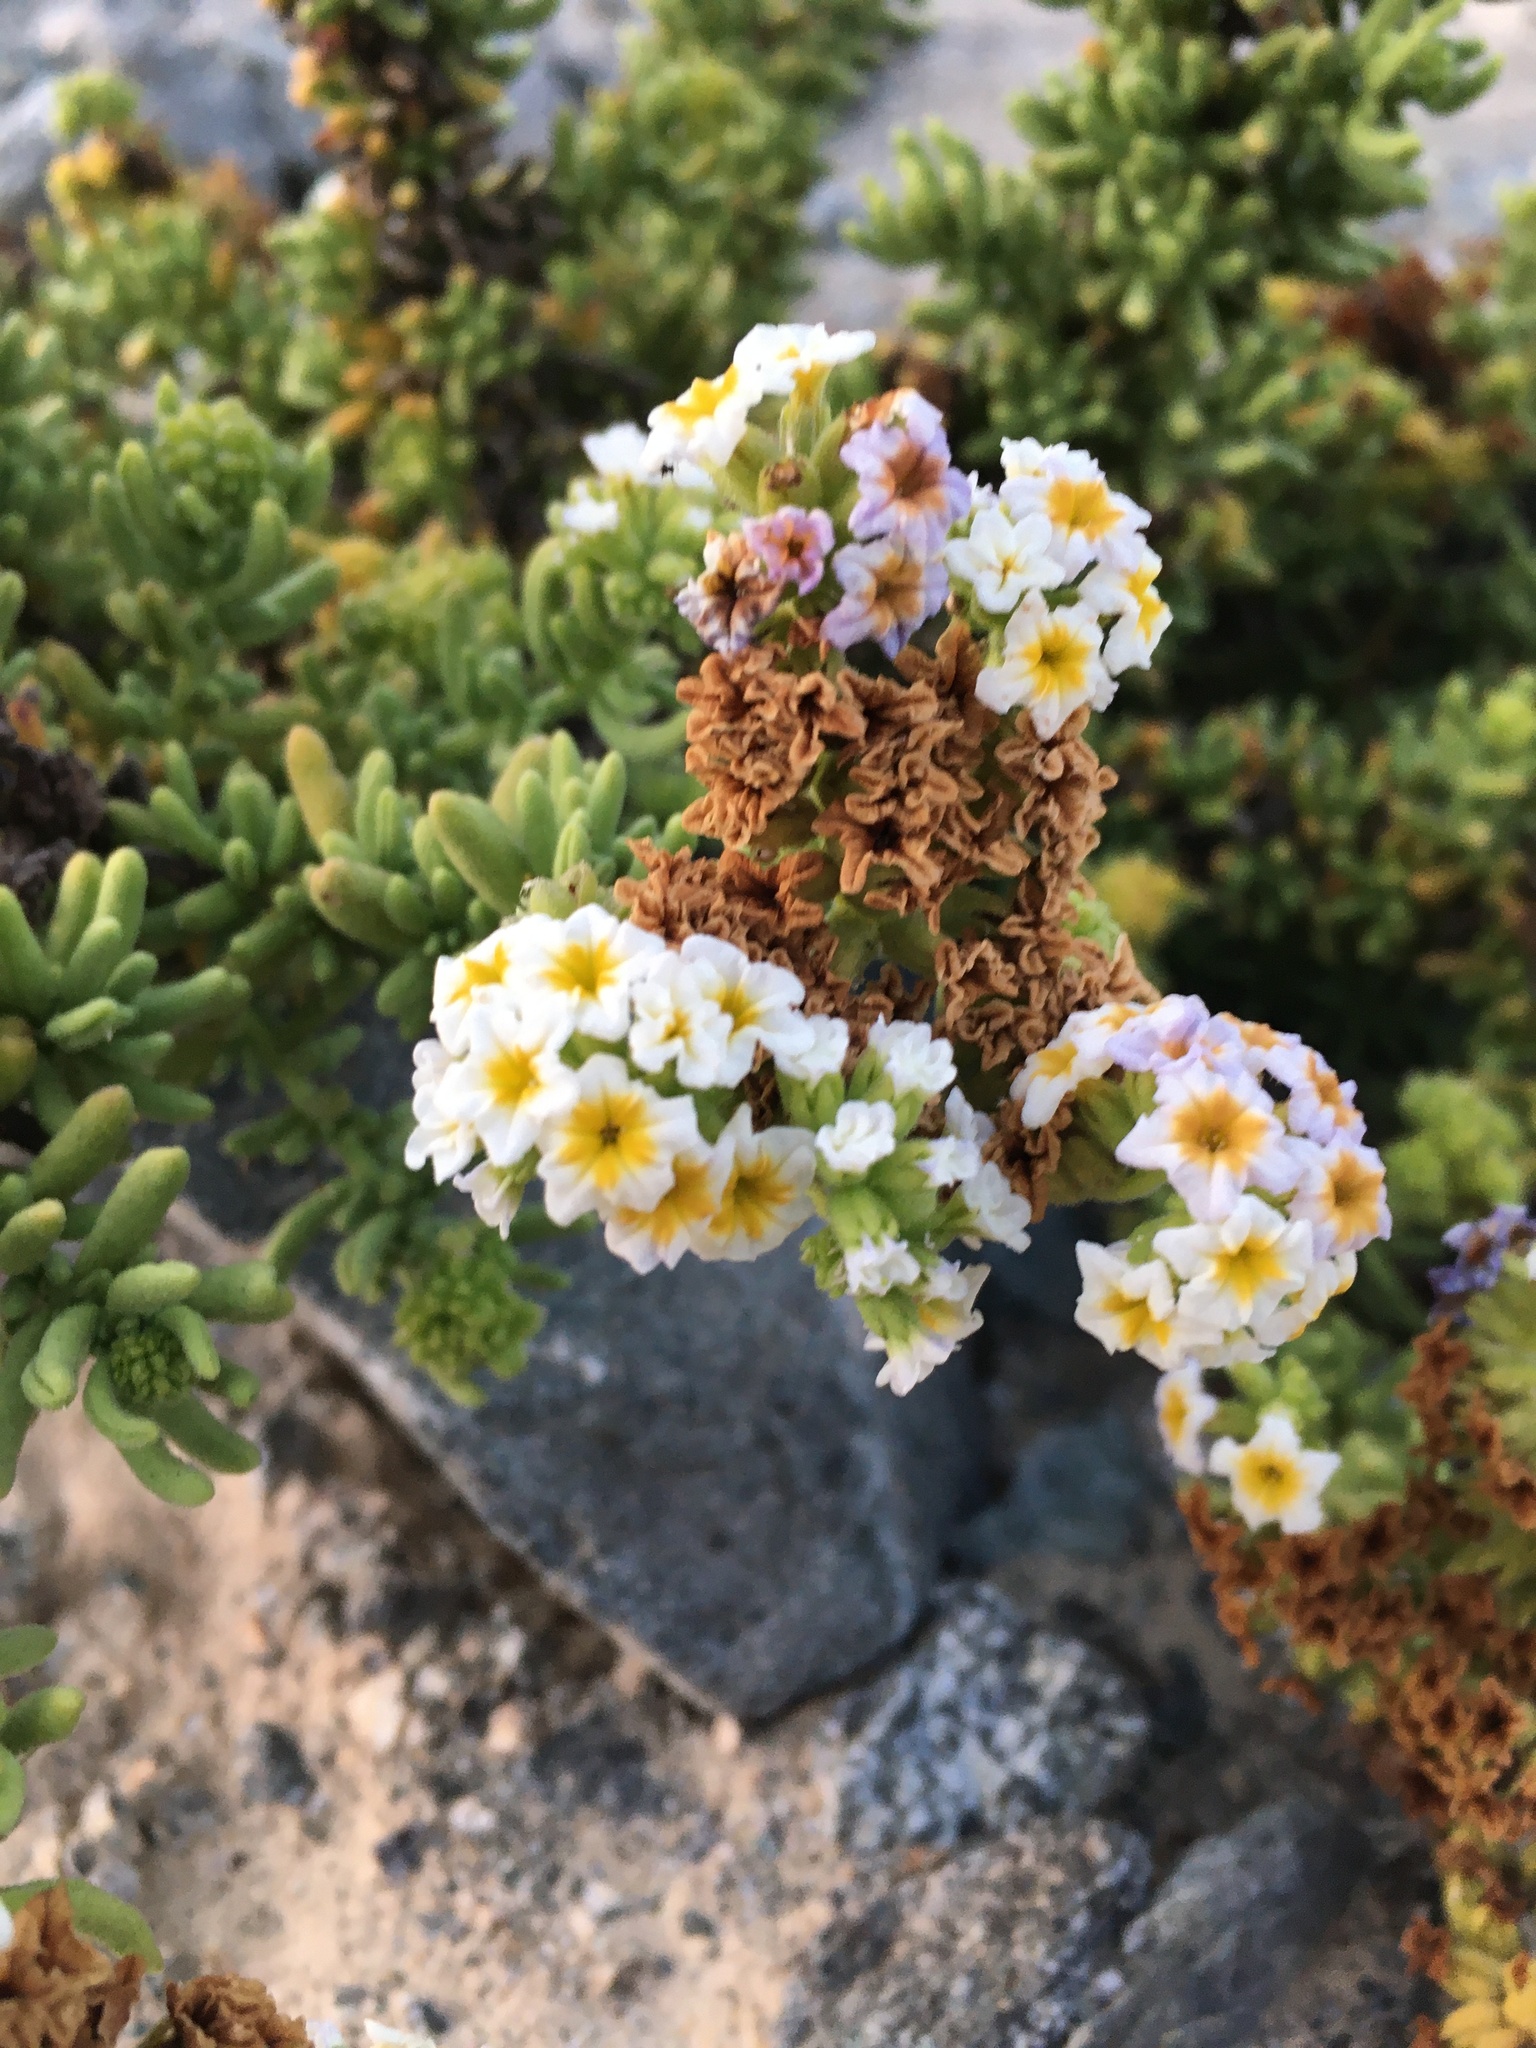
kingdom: Plantae
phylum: Tracheophyta
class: Magnoliopsida
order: Boraginales
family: Heliotropiaceae
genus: Heliotropium
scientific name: Heliotropium pycnophyllum
